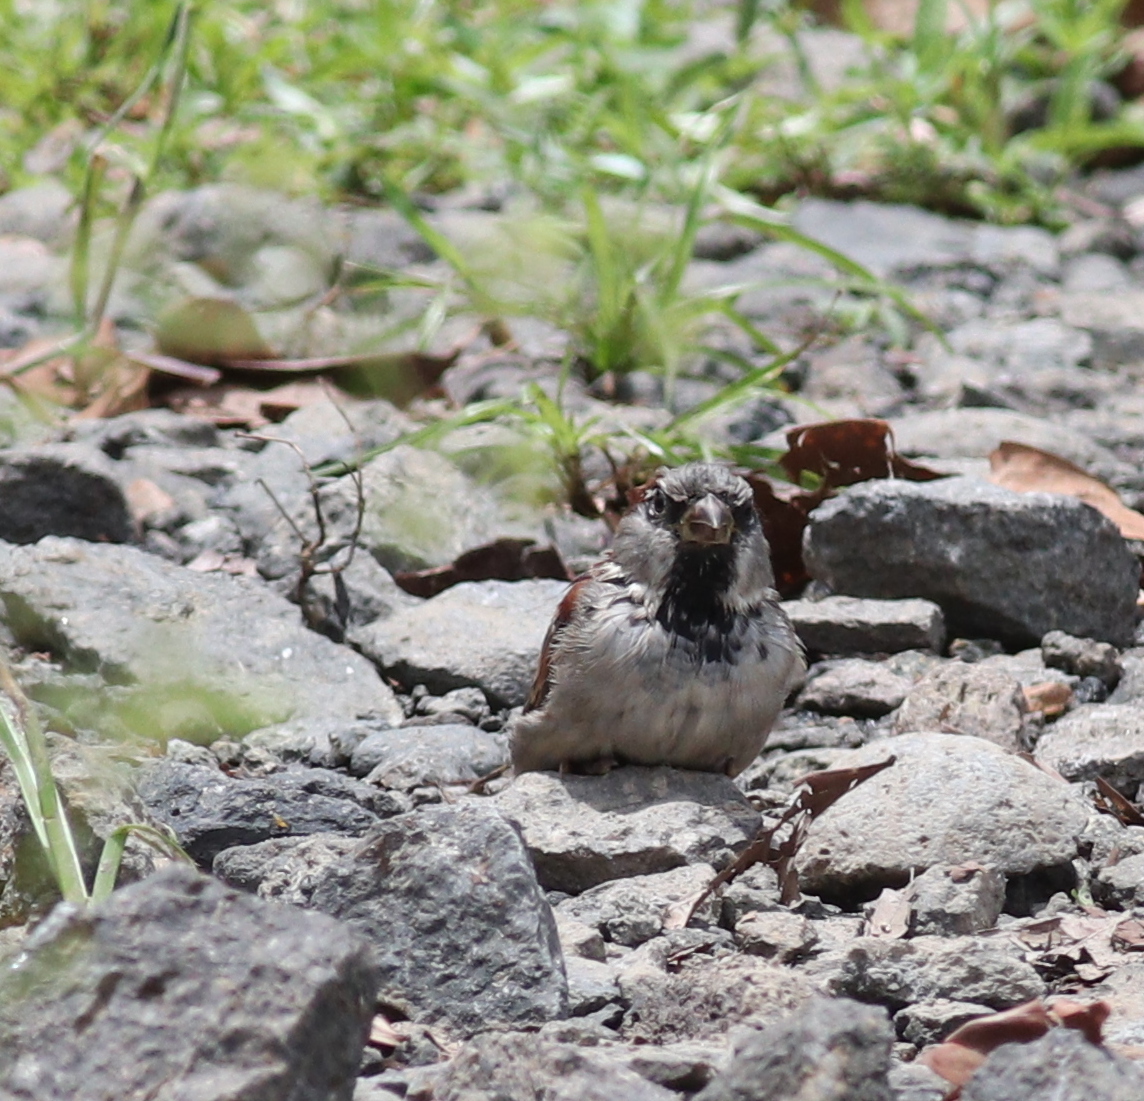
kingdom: Animalia
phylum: Chordata
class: Aves
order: Passeriformes
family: Passeridae
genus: Passer
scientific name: Passer domesticus
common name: House sparrow
